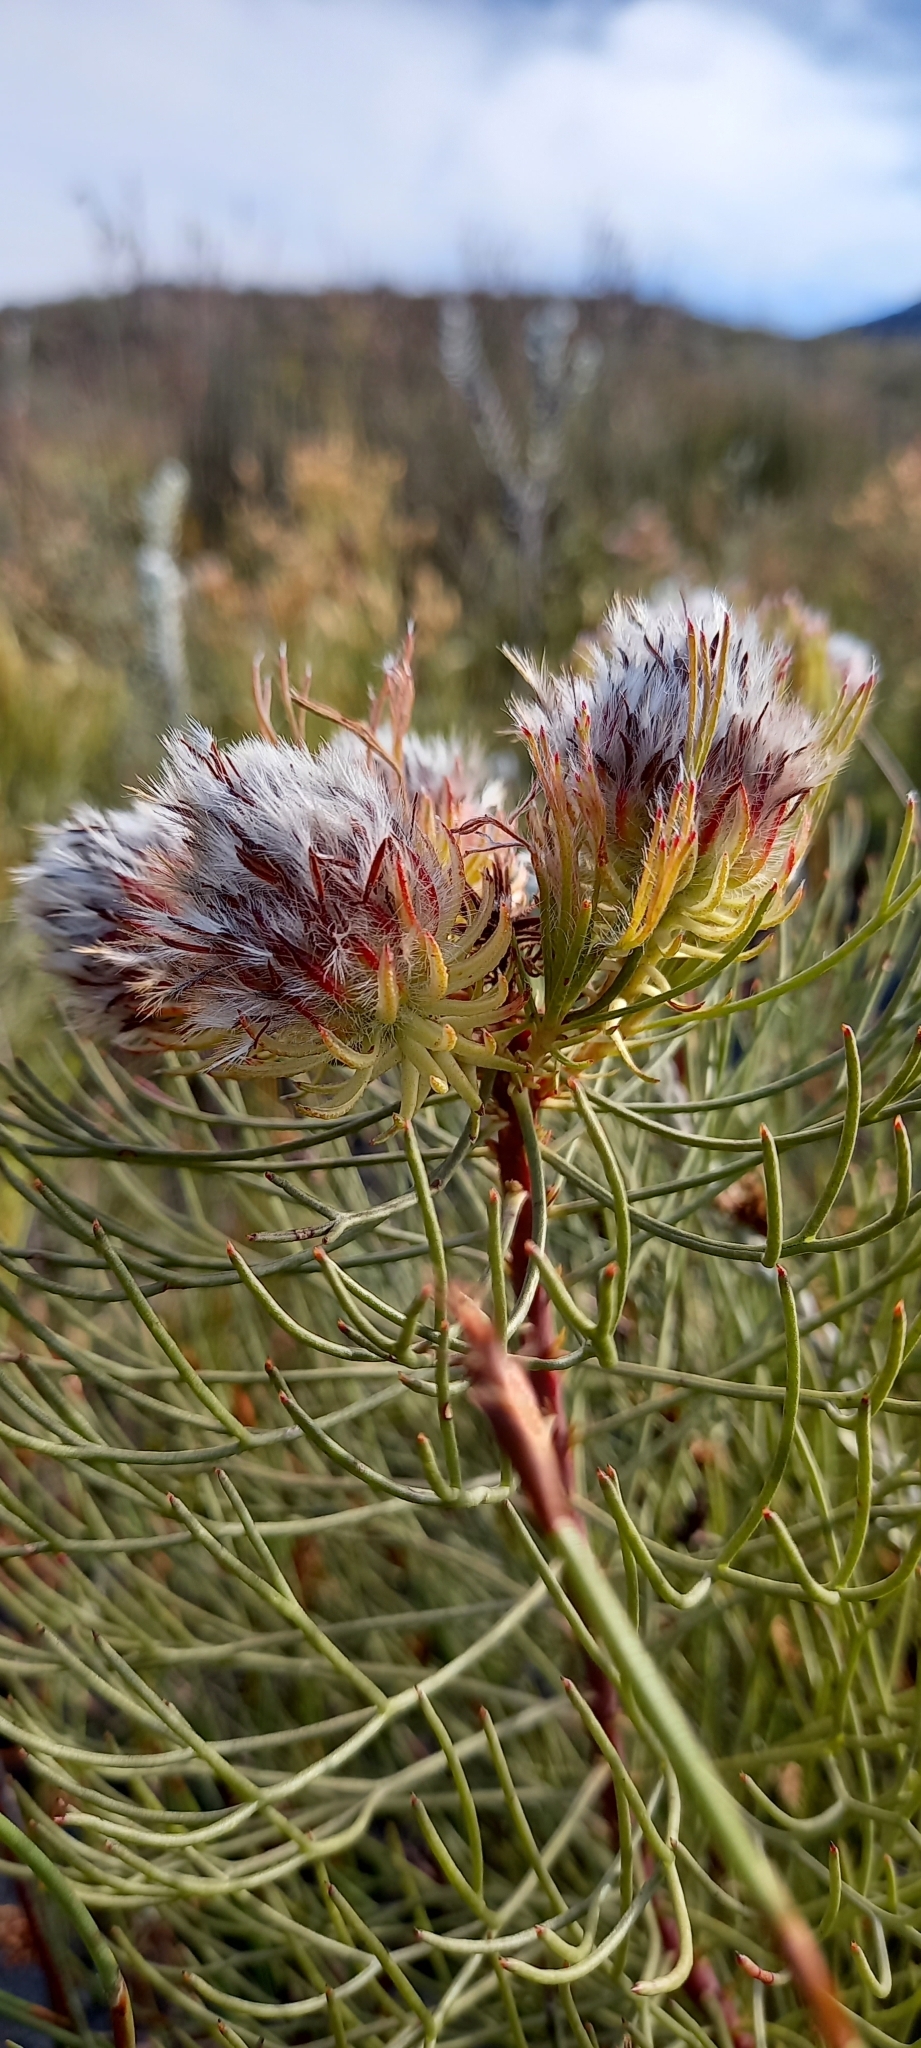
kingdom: Plantae
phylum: Tracheophyta
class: Magnoliopsida
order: Proteales
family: Proteaceae
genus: Serruria
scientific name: Serruria phylicoides
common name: Bearded spiderhead
